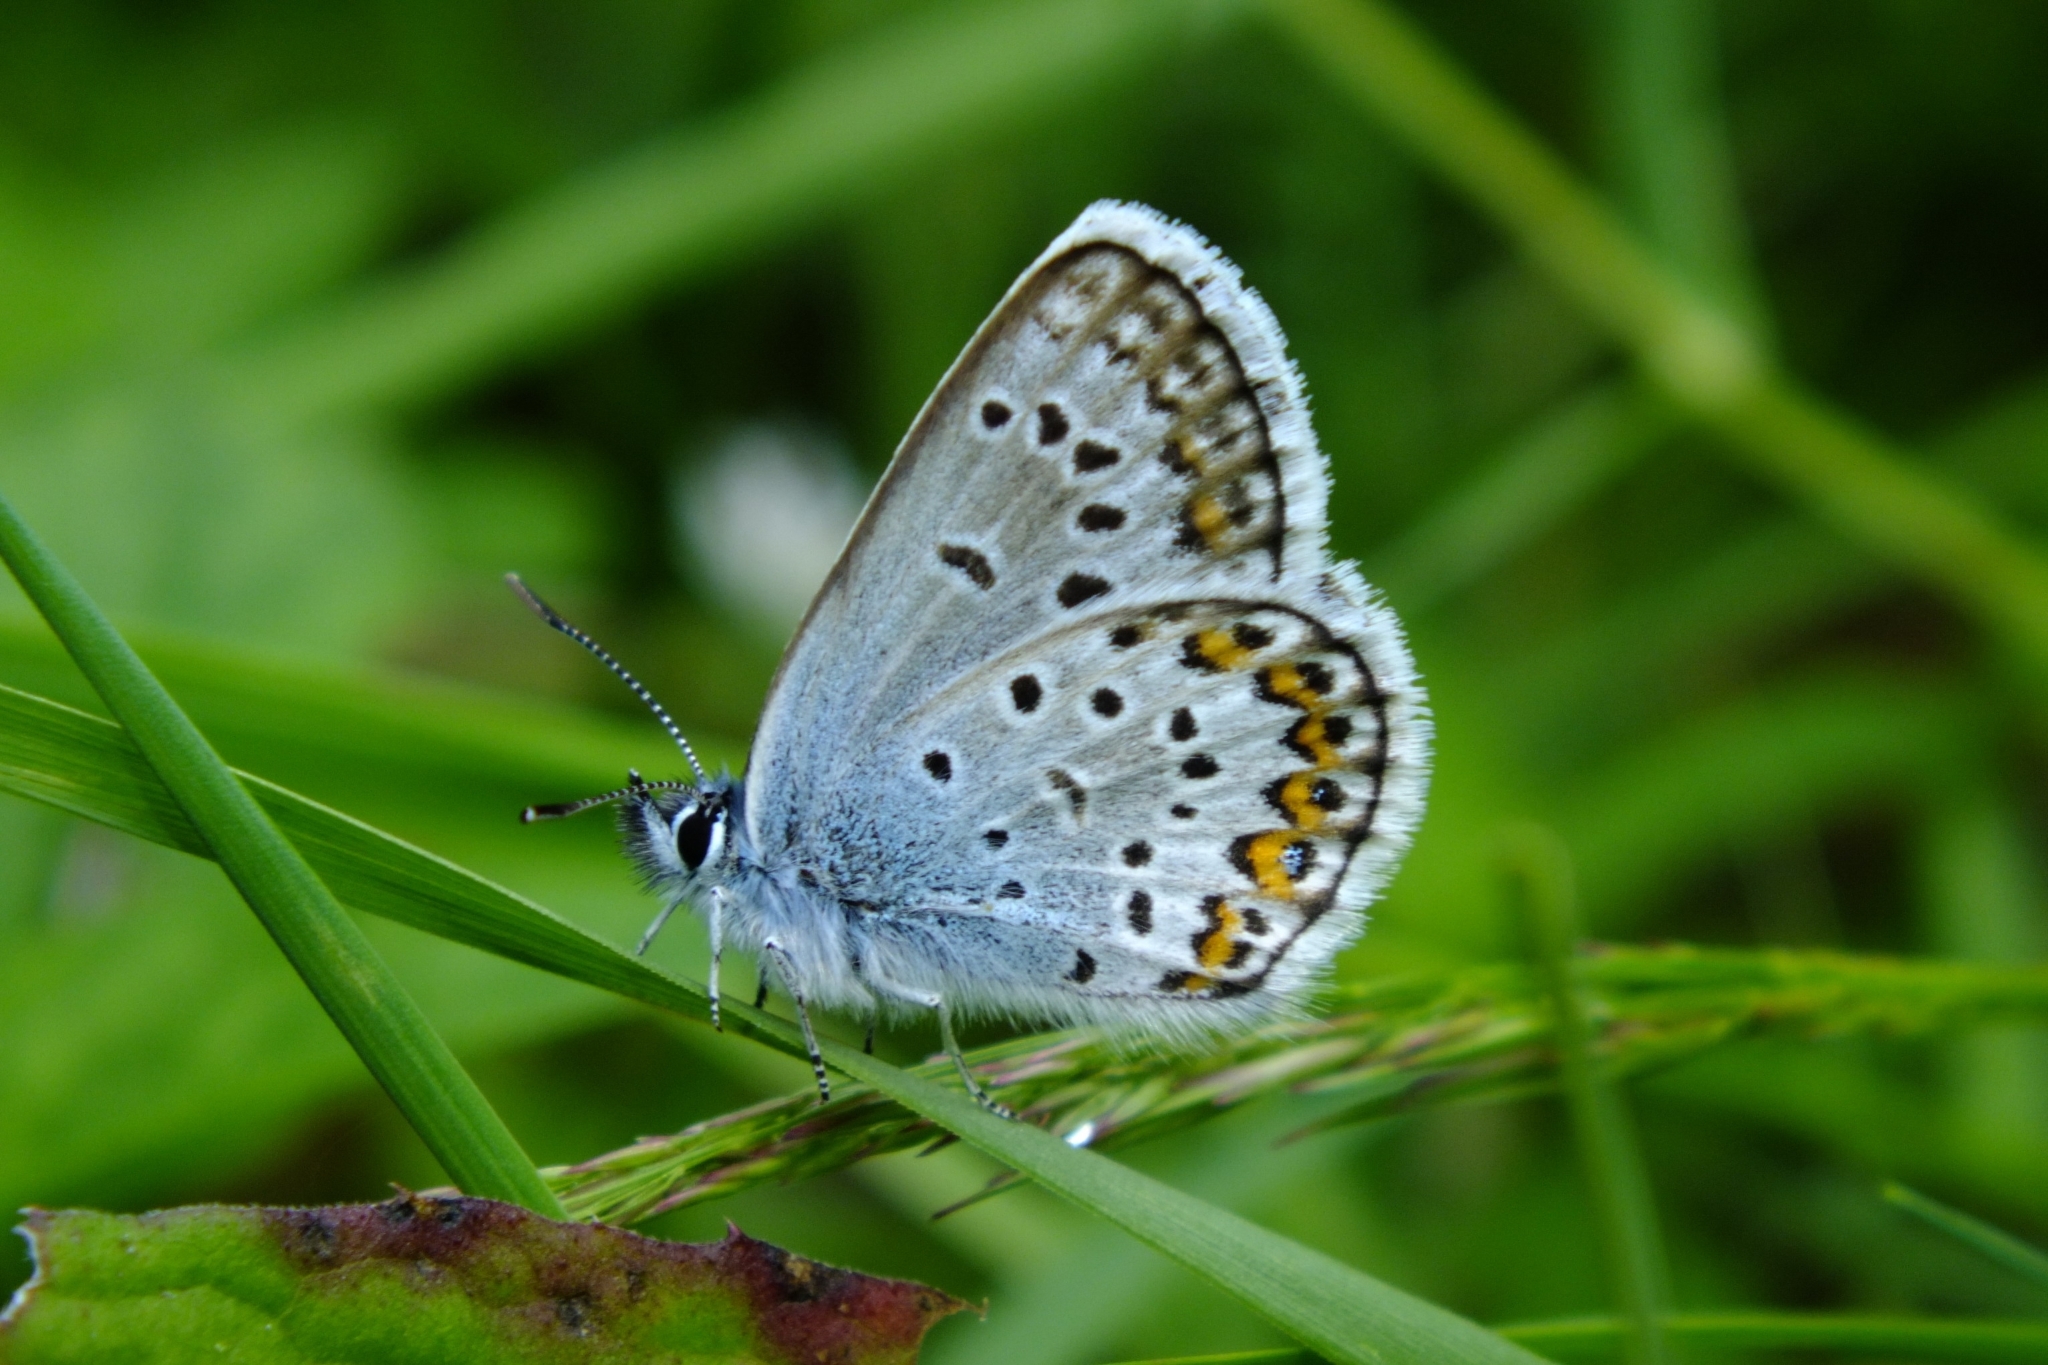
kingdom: Animalia
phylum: Arthropoda
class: Insecta
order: Lepidoptera
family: Lycaenidae
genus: Plebejus
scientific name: Plebejus argus
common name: Silver-studded blue
